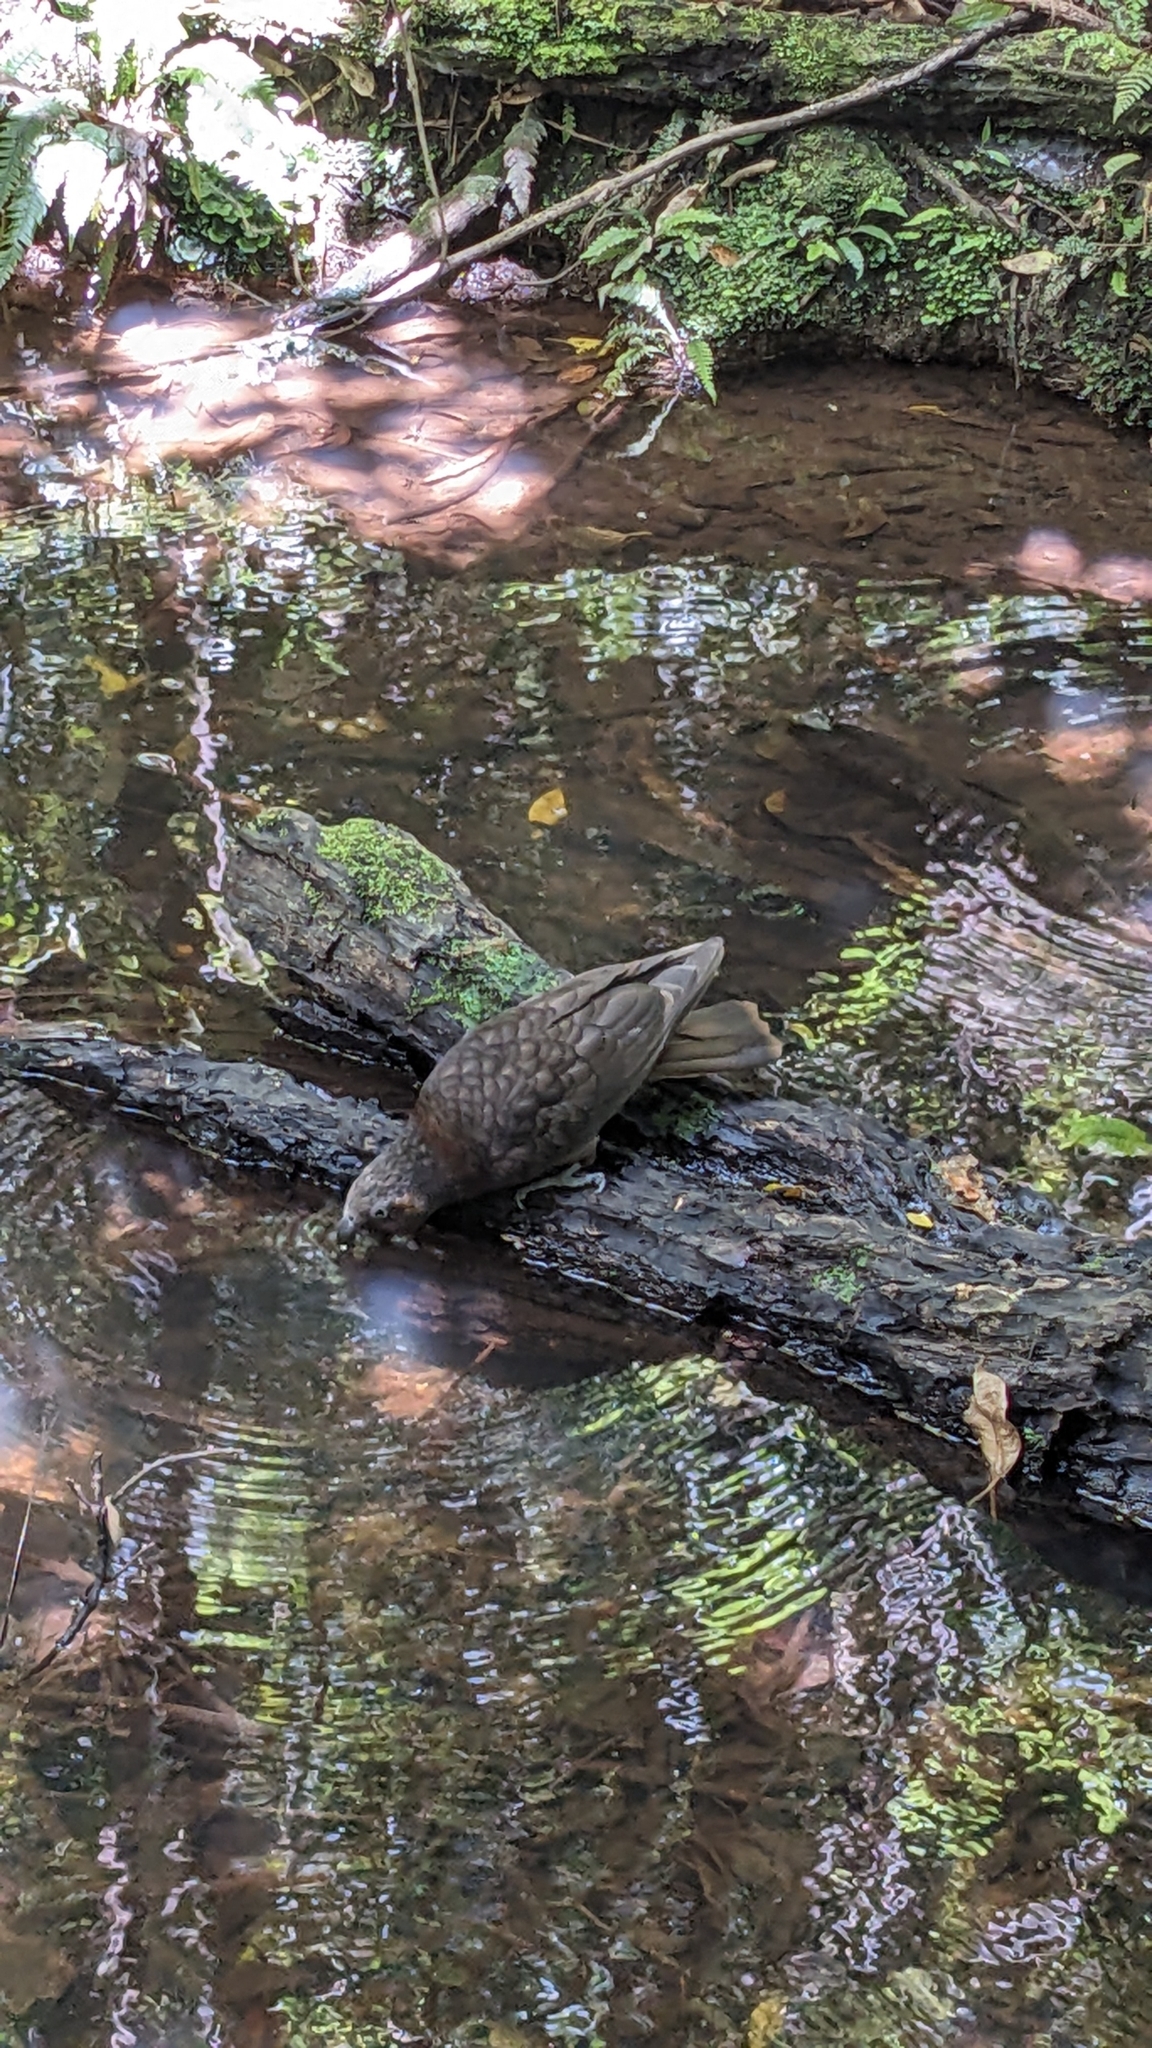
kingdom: Animalia
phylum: Chordata
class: Aves
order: Psittaciformes
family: Psittacidae
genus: Nestor
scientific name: Nestor meridionalis
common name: New zealand kaka
